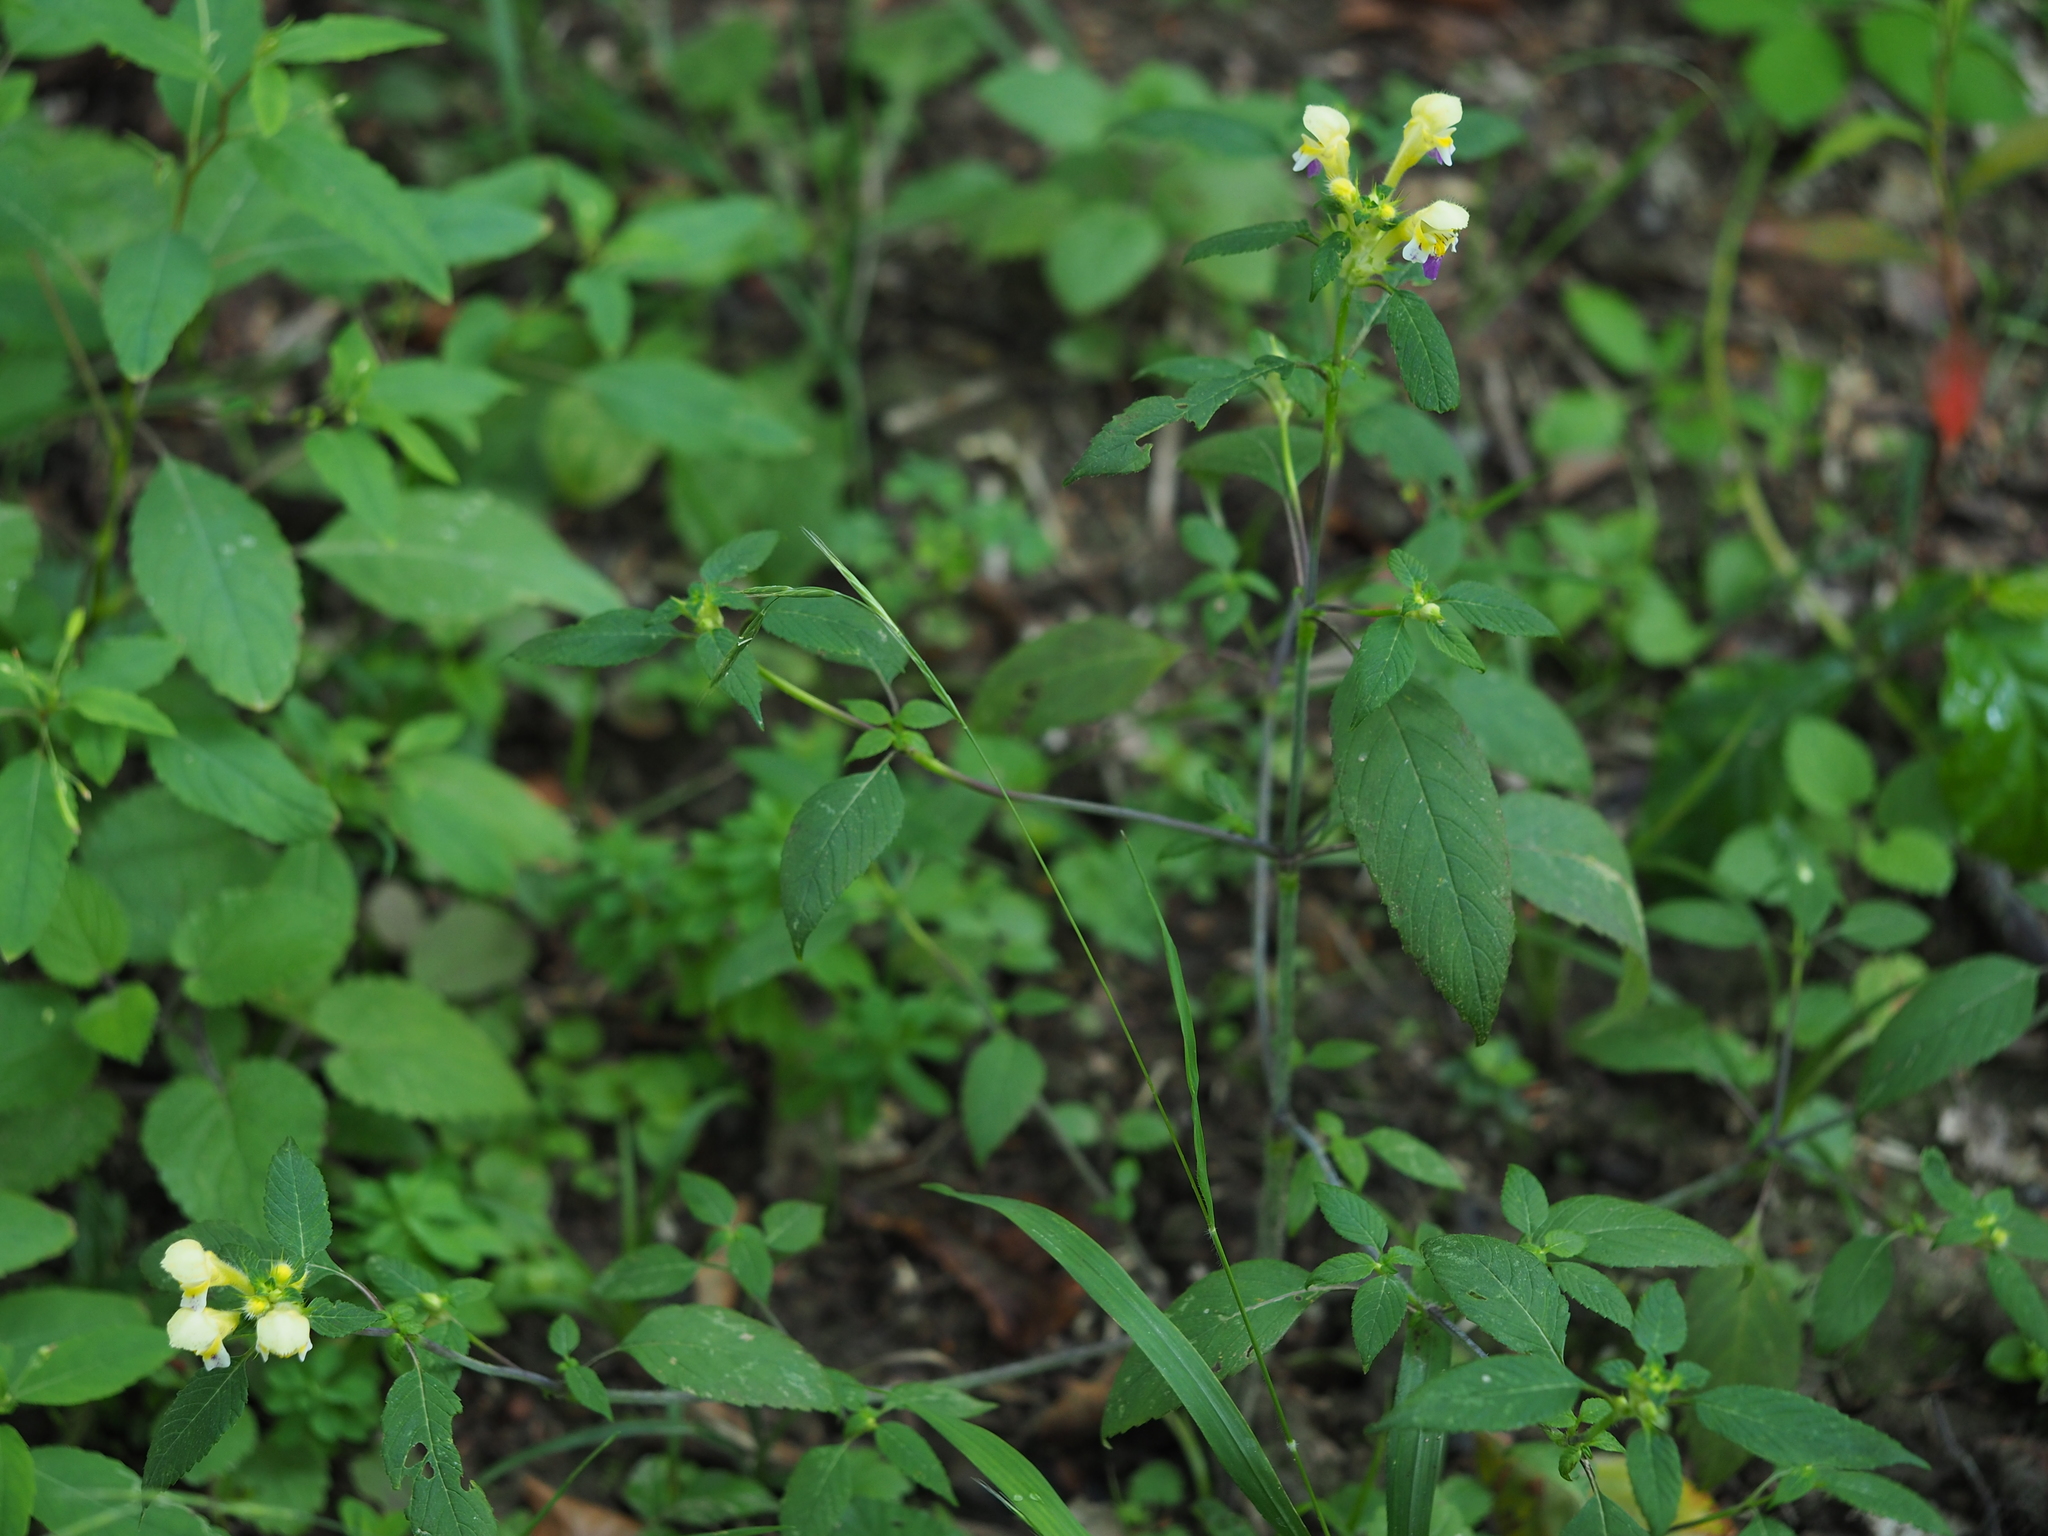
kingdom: Plantae
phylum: Tracheophyta
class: Magnoliopsida
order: Lamiales
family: Lamiaceae
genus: Galeopsis
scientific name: Galeopsis speciosa
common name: Large-flowered hemp-nettle
